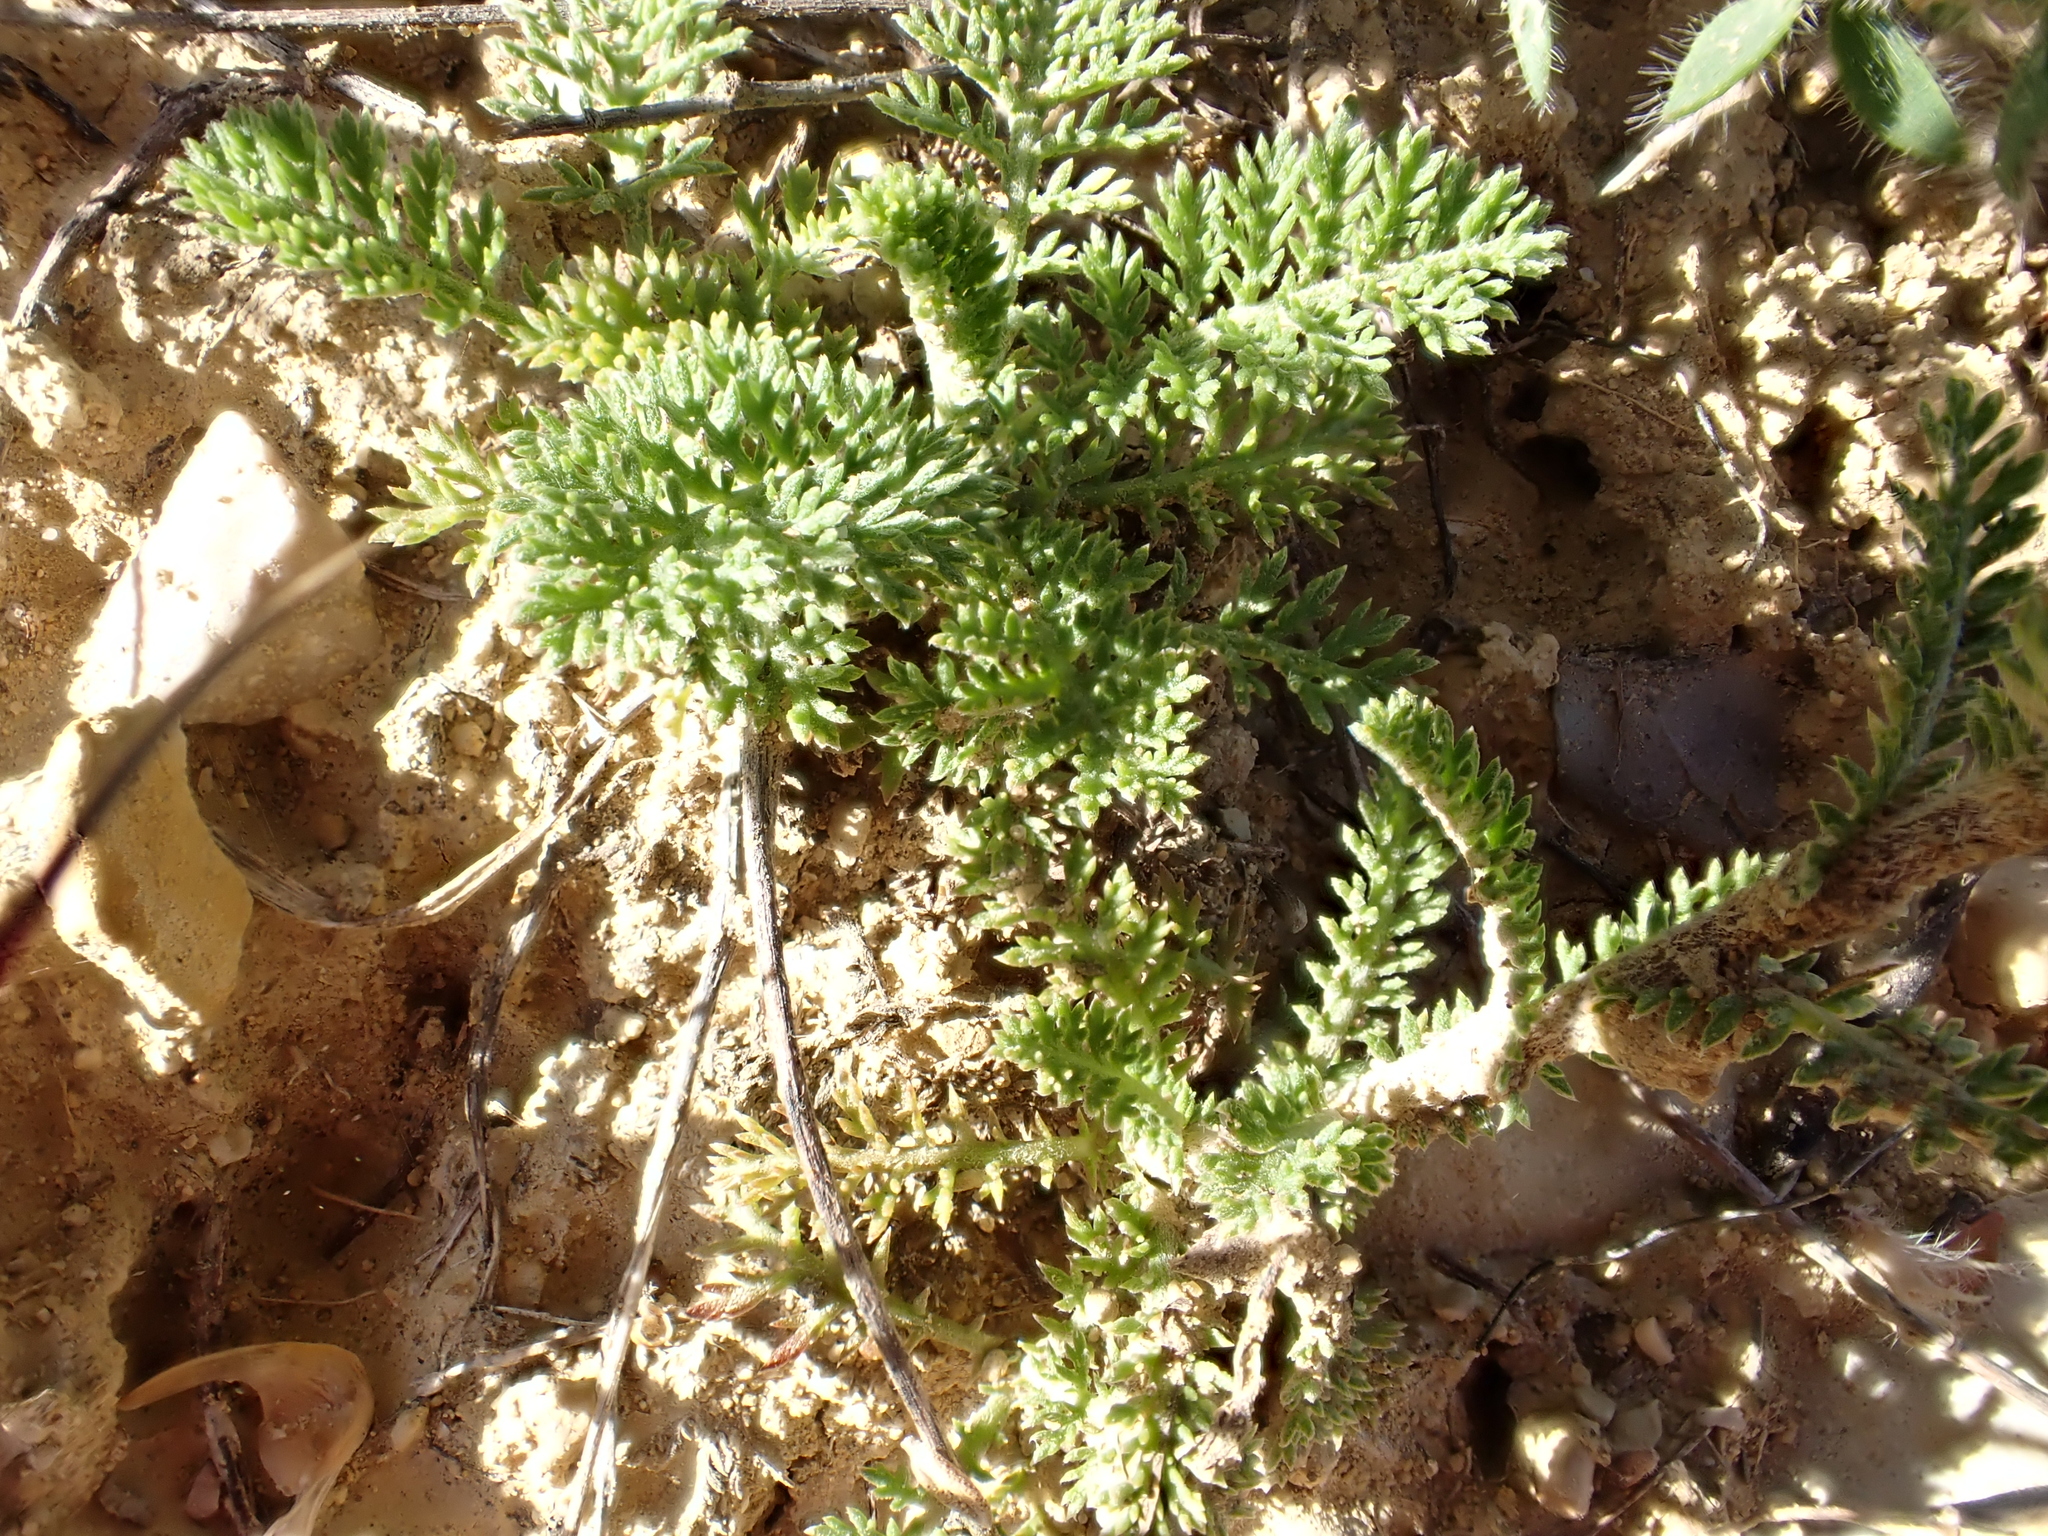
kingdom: Plantae
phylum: Tracheophyta
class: Magnoliopsida
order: Asterales
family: Asteraceae
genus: Achillea
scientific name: Achillea odorata
